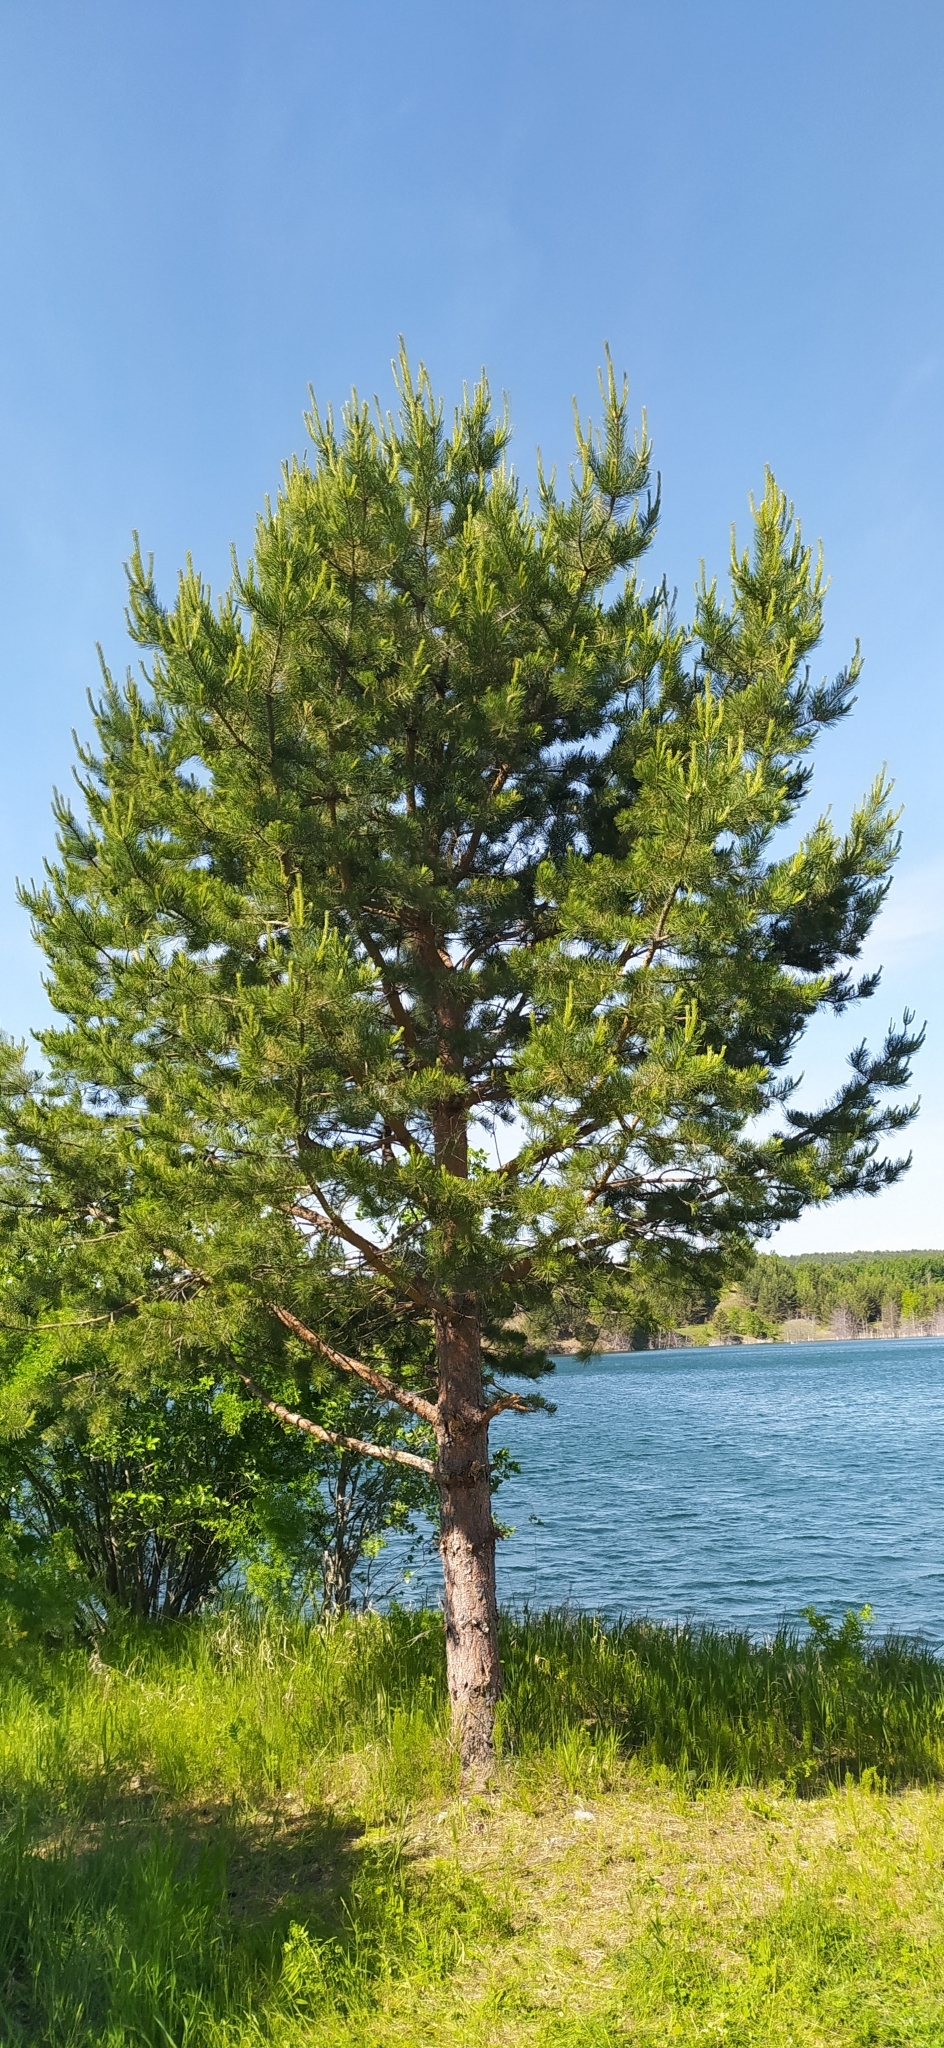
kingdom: Plantae
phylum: Tracheophyta
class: Pinopsida
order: Pinales
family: Pinaceae
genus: Pinus
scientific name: Pinus sylvestris
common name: Scots pine
